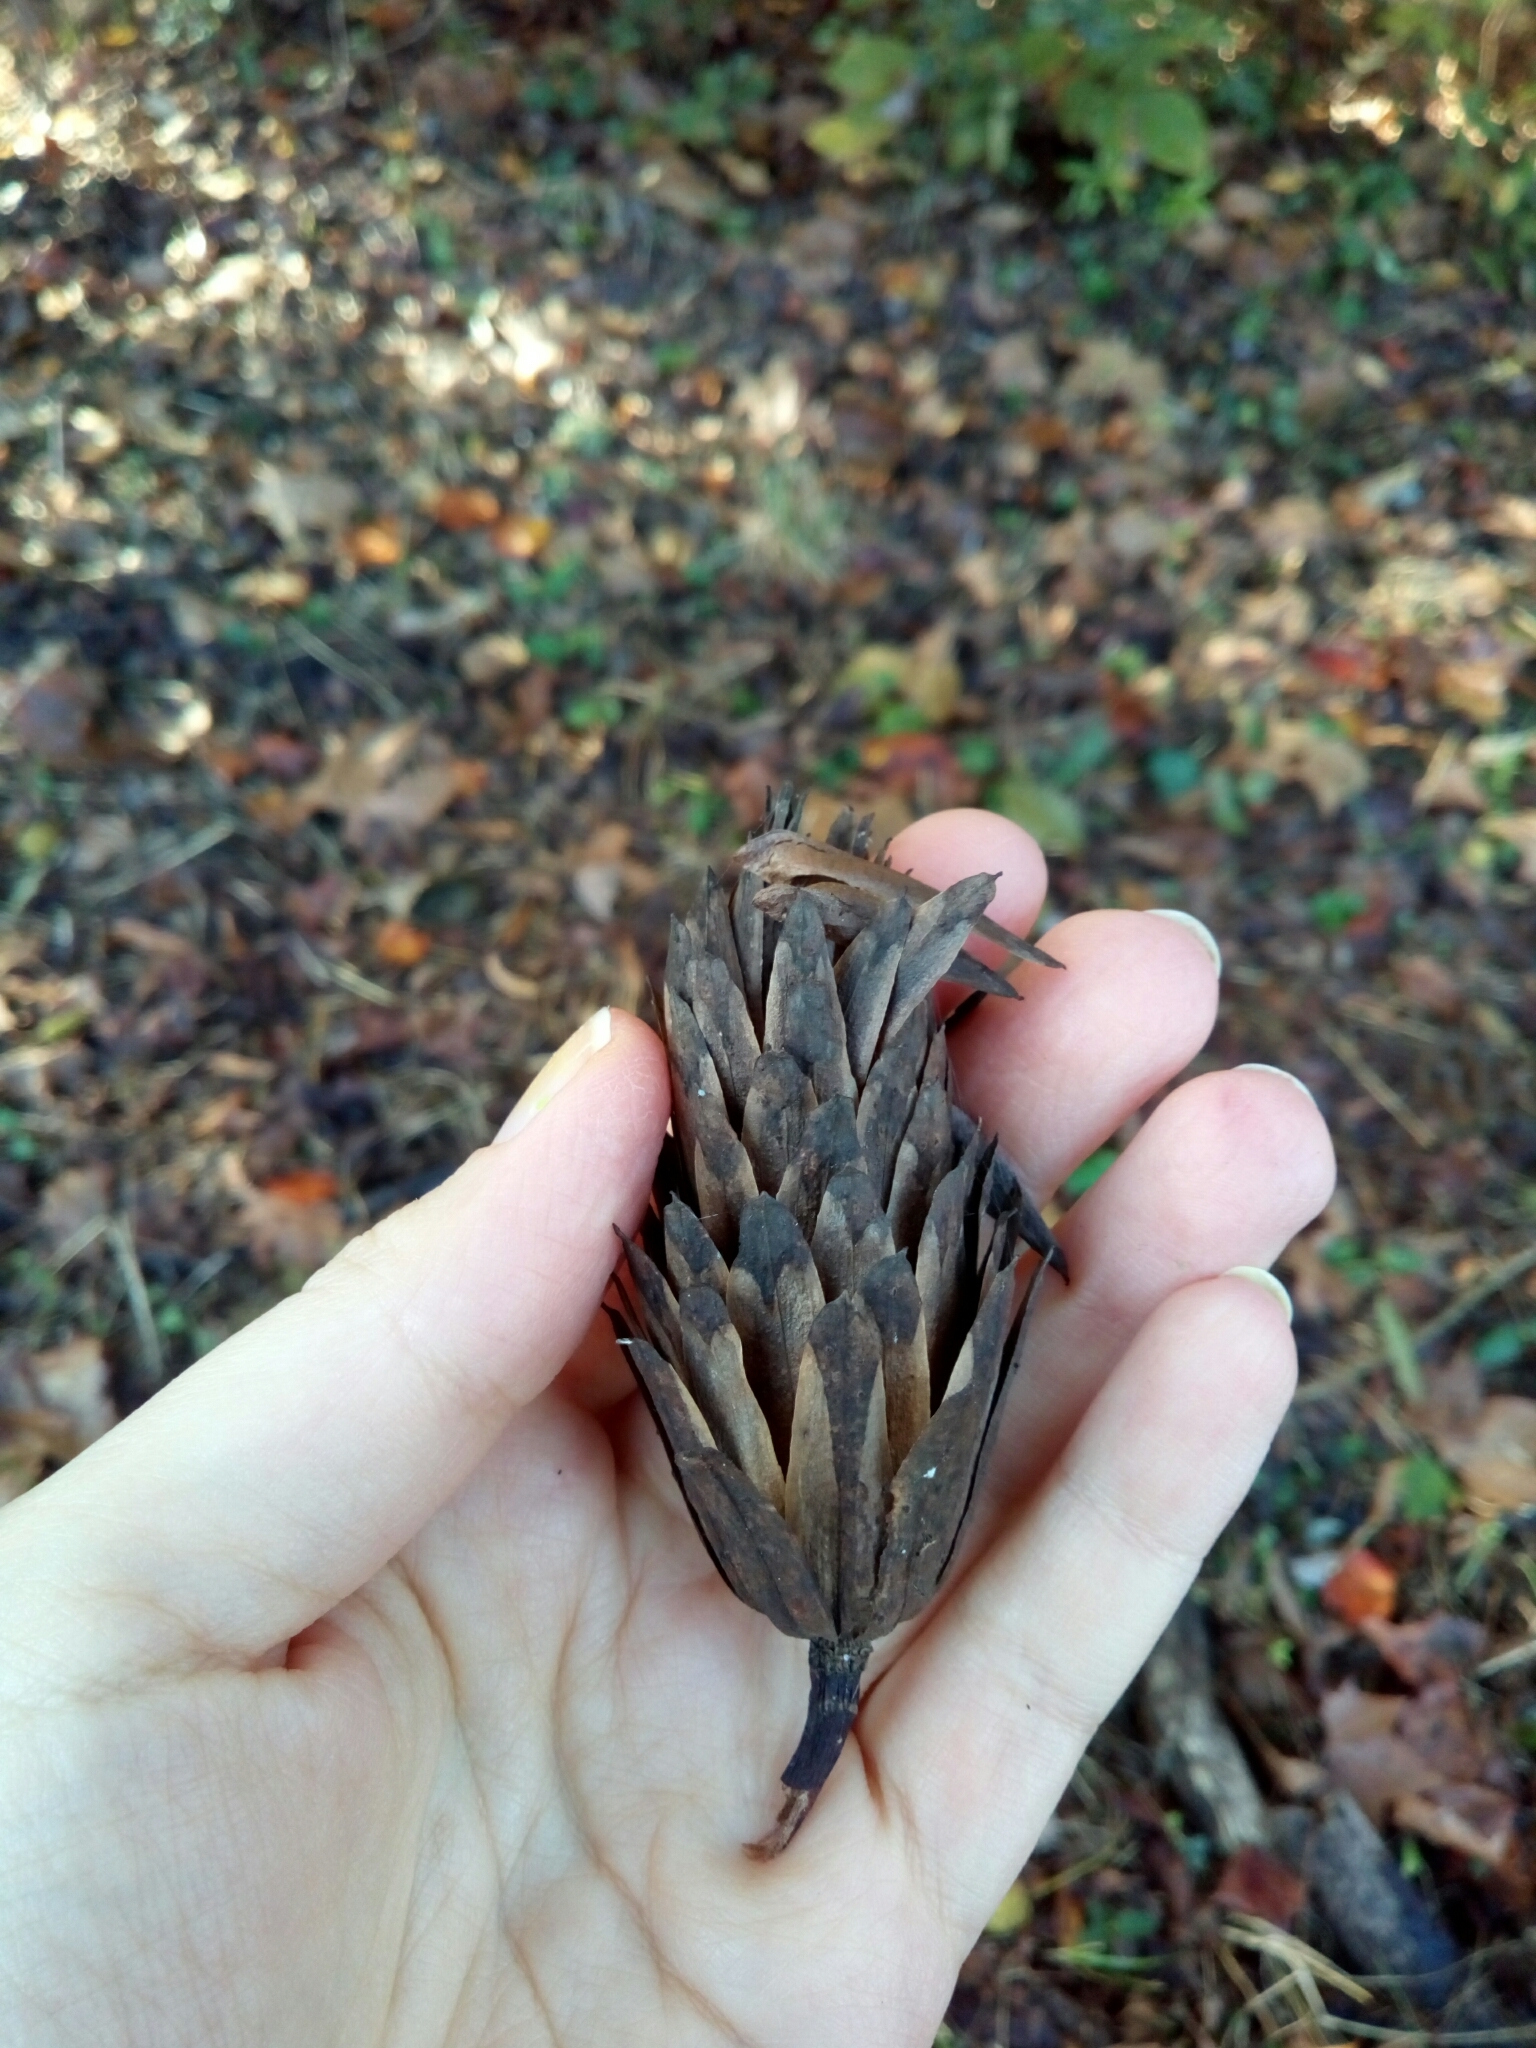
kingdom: Plantae
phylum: Tracheophyta
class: Magnoliopsida
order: Magnoliales
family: Magnoliaceae
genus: Liriodendron
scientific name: Liriodendron tulipifera
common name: Tulip tree
